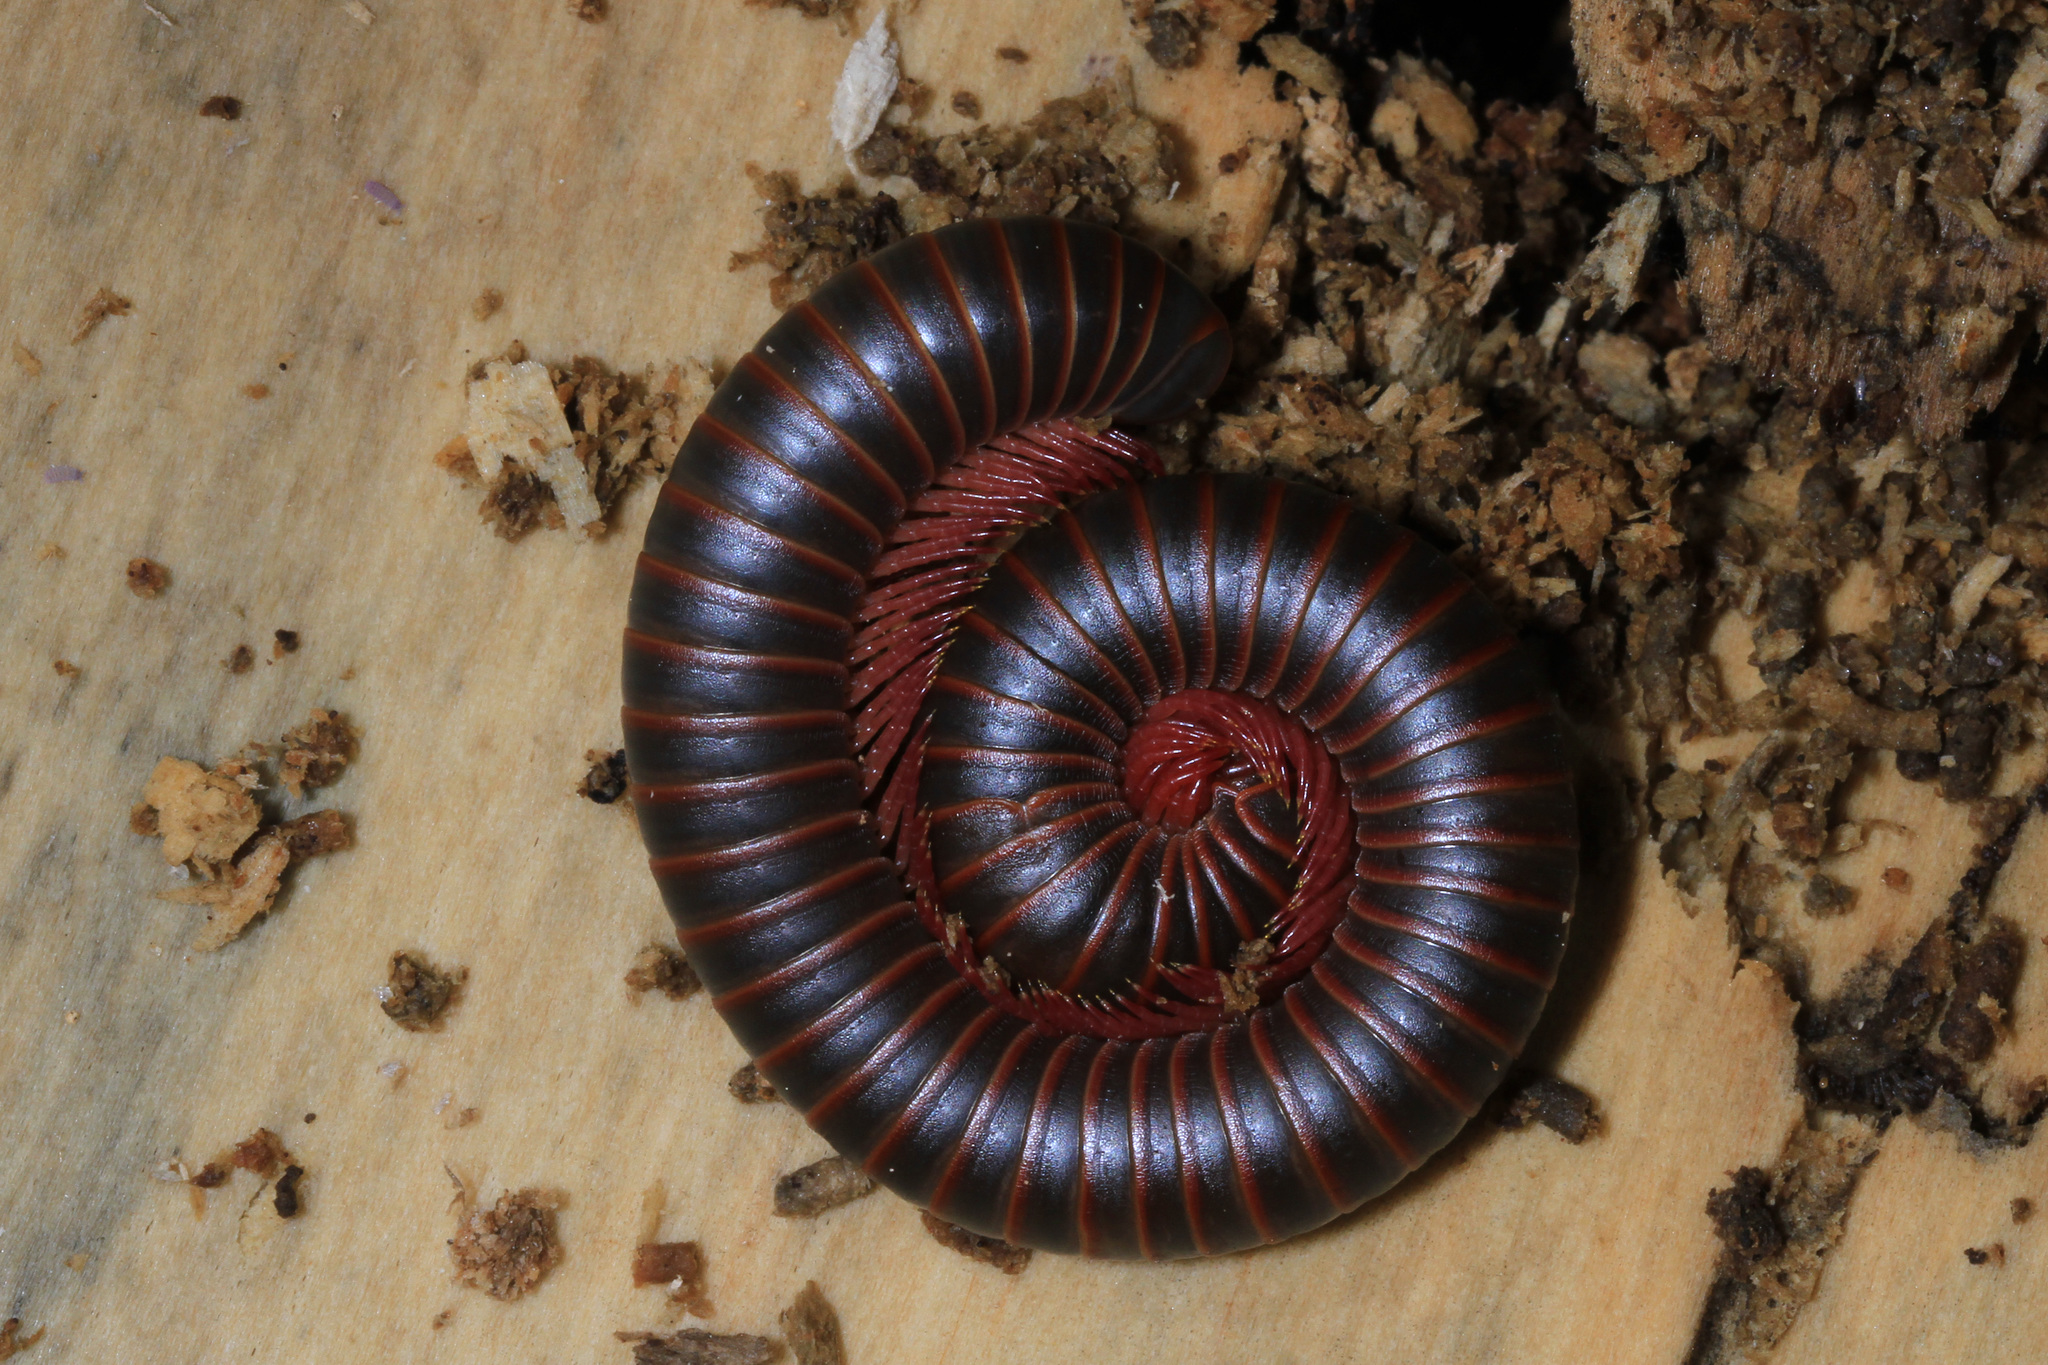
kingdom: Animalia
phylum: Arthropoda
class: Diplopoda
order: Spirobolida
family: Spirobolidae
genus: Narceus
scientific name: Narceus
